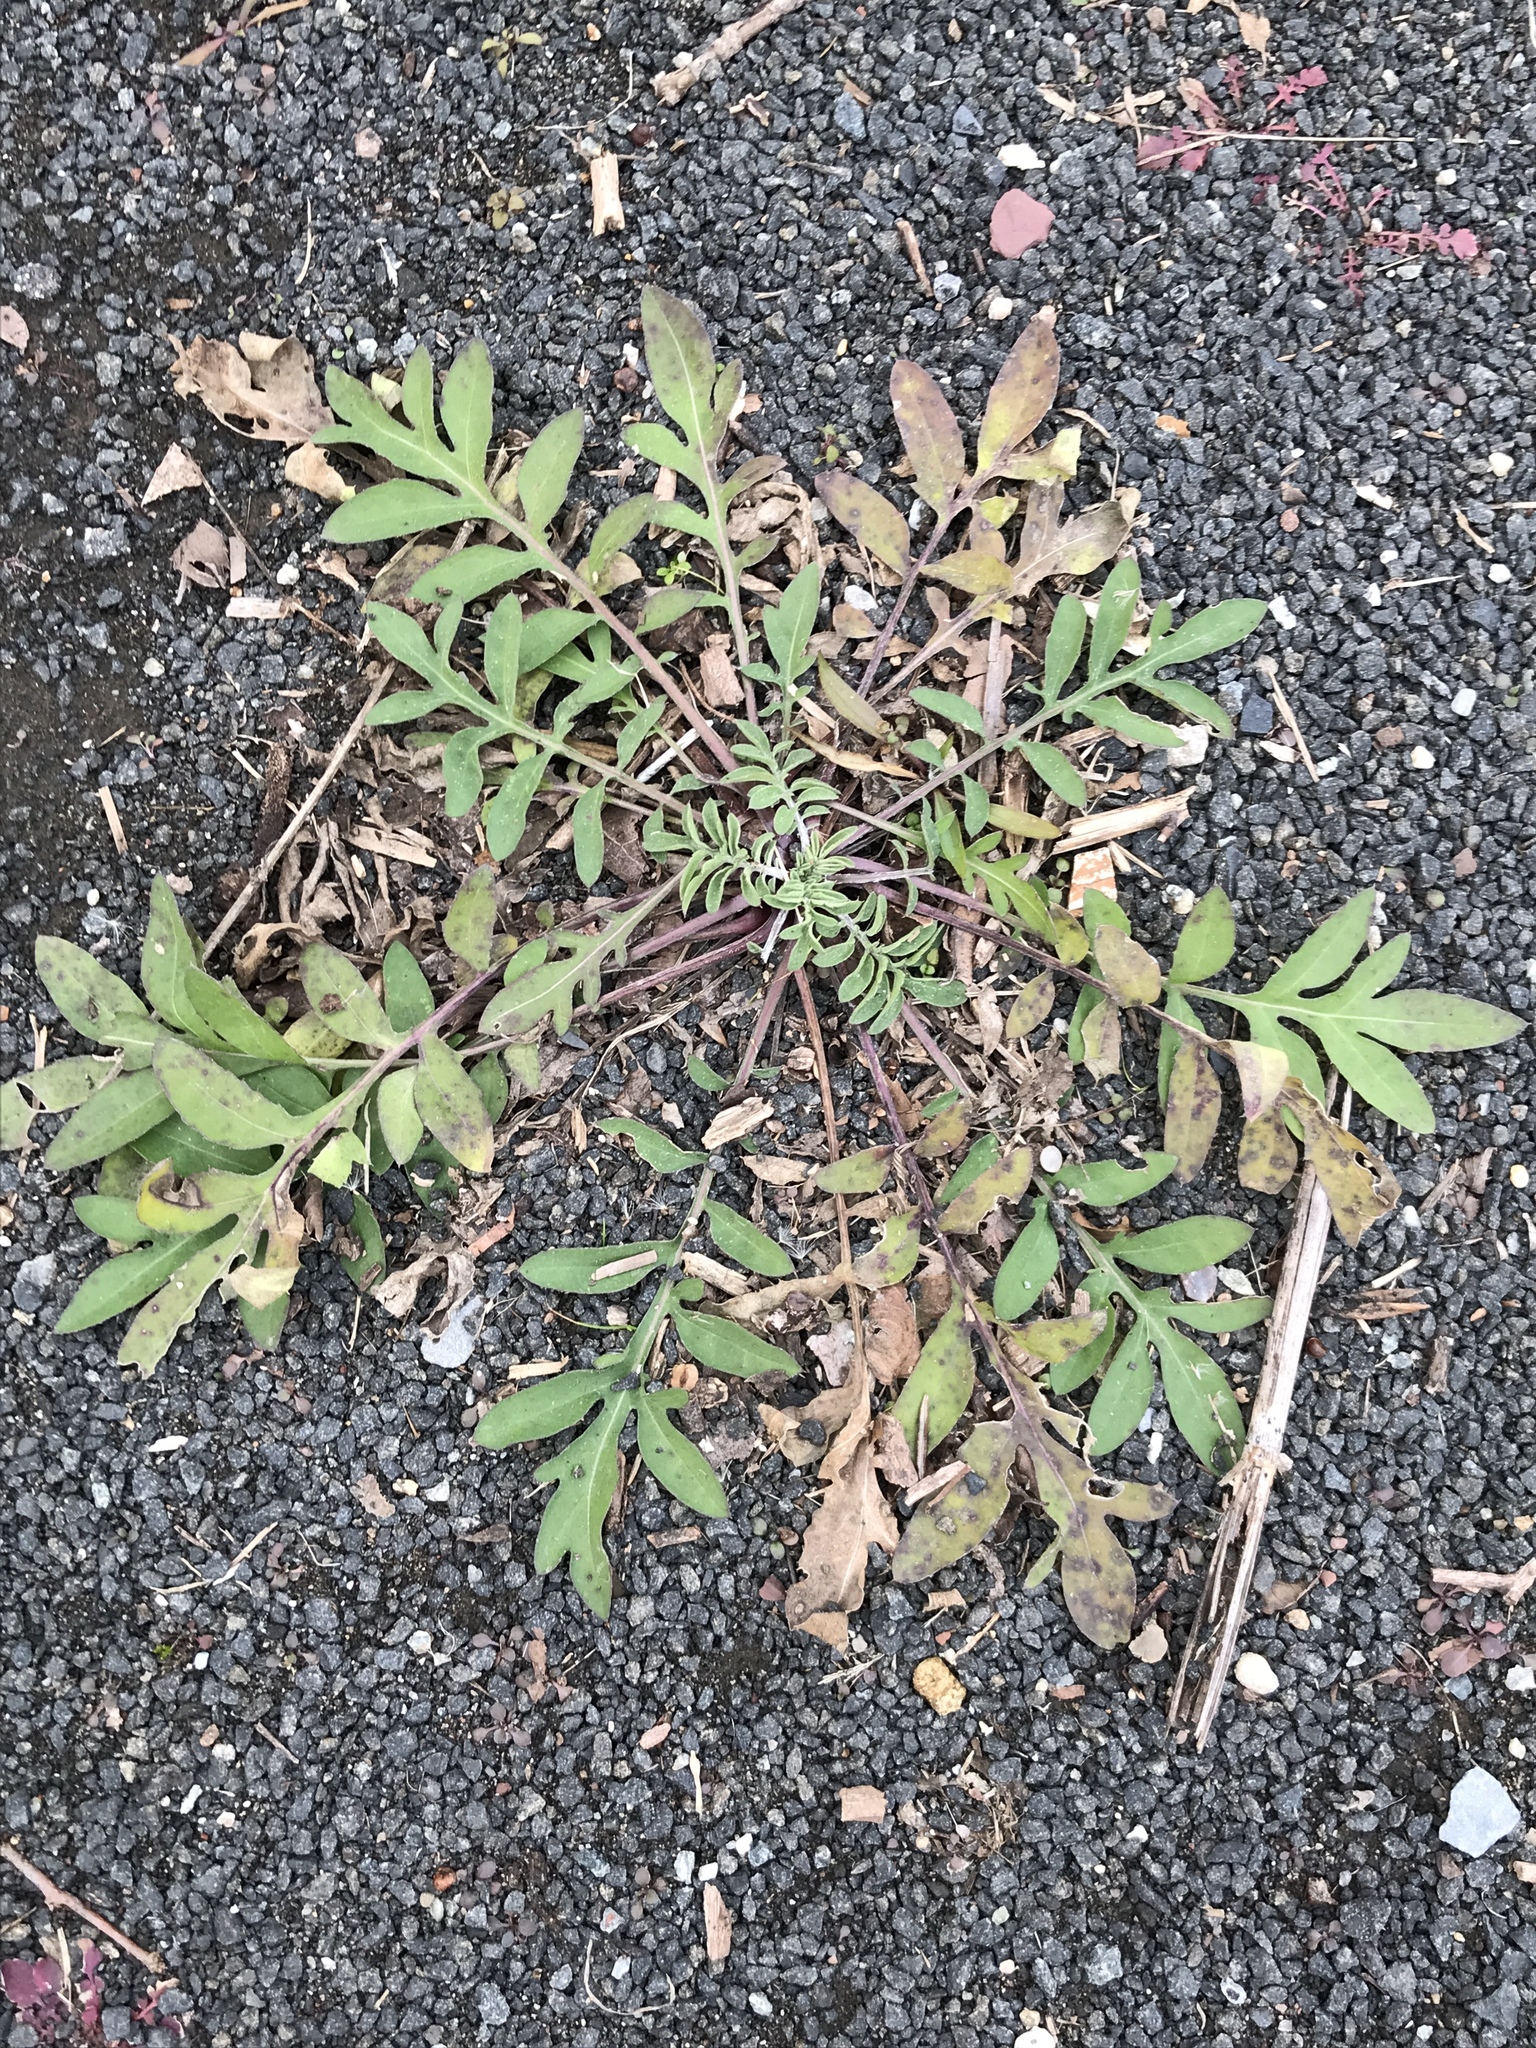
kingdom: Plantae
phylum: Tracheophyta
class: Magnoliopsida
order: Asterales
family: Asteraceae
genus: Centaurea
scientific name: Centaurea stoebe
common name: Spotted knapweed
